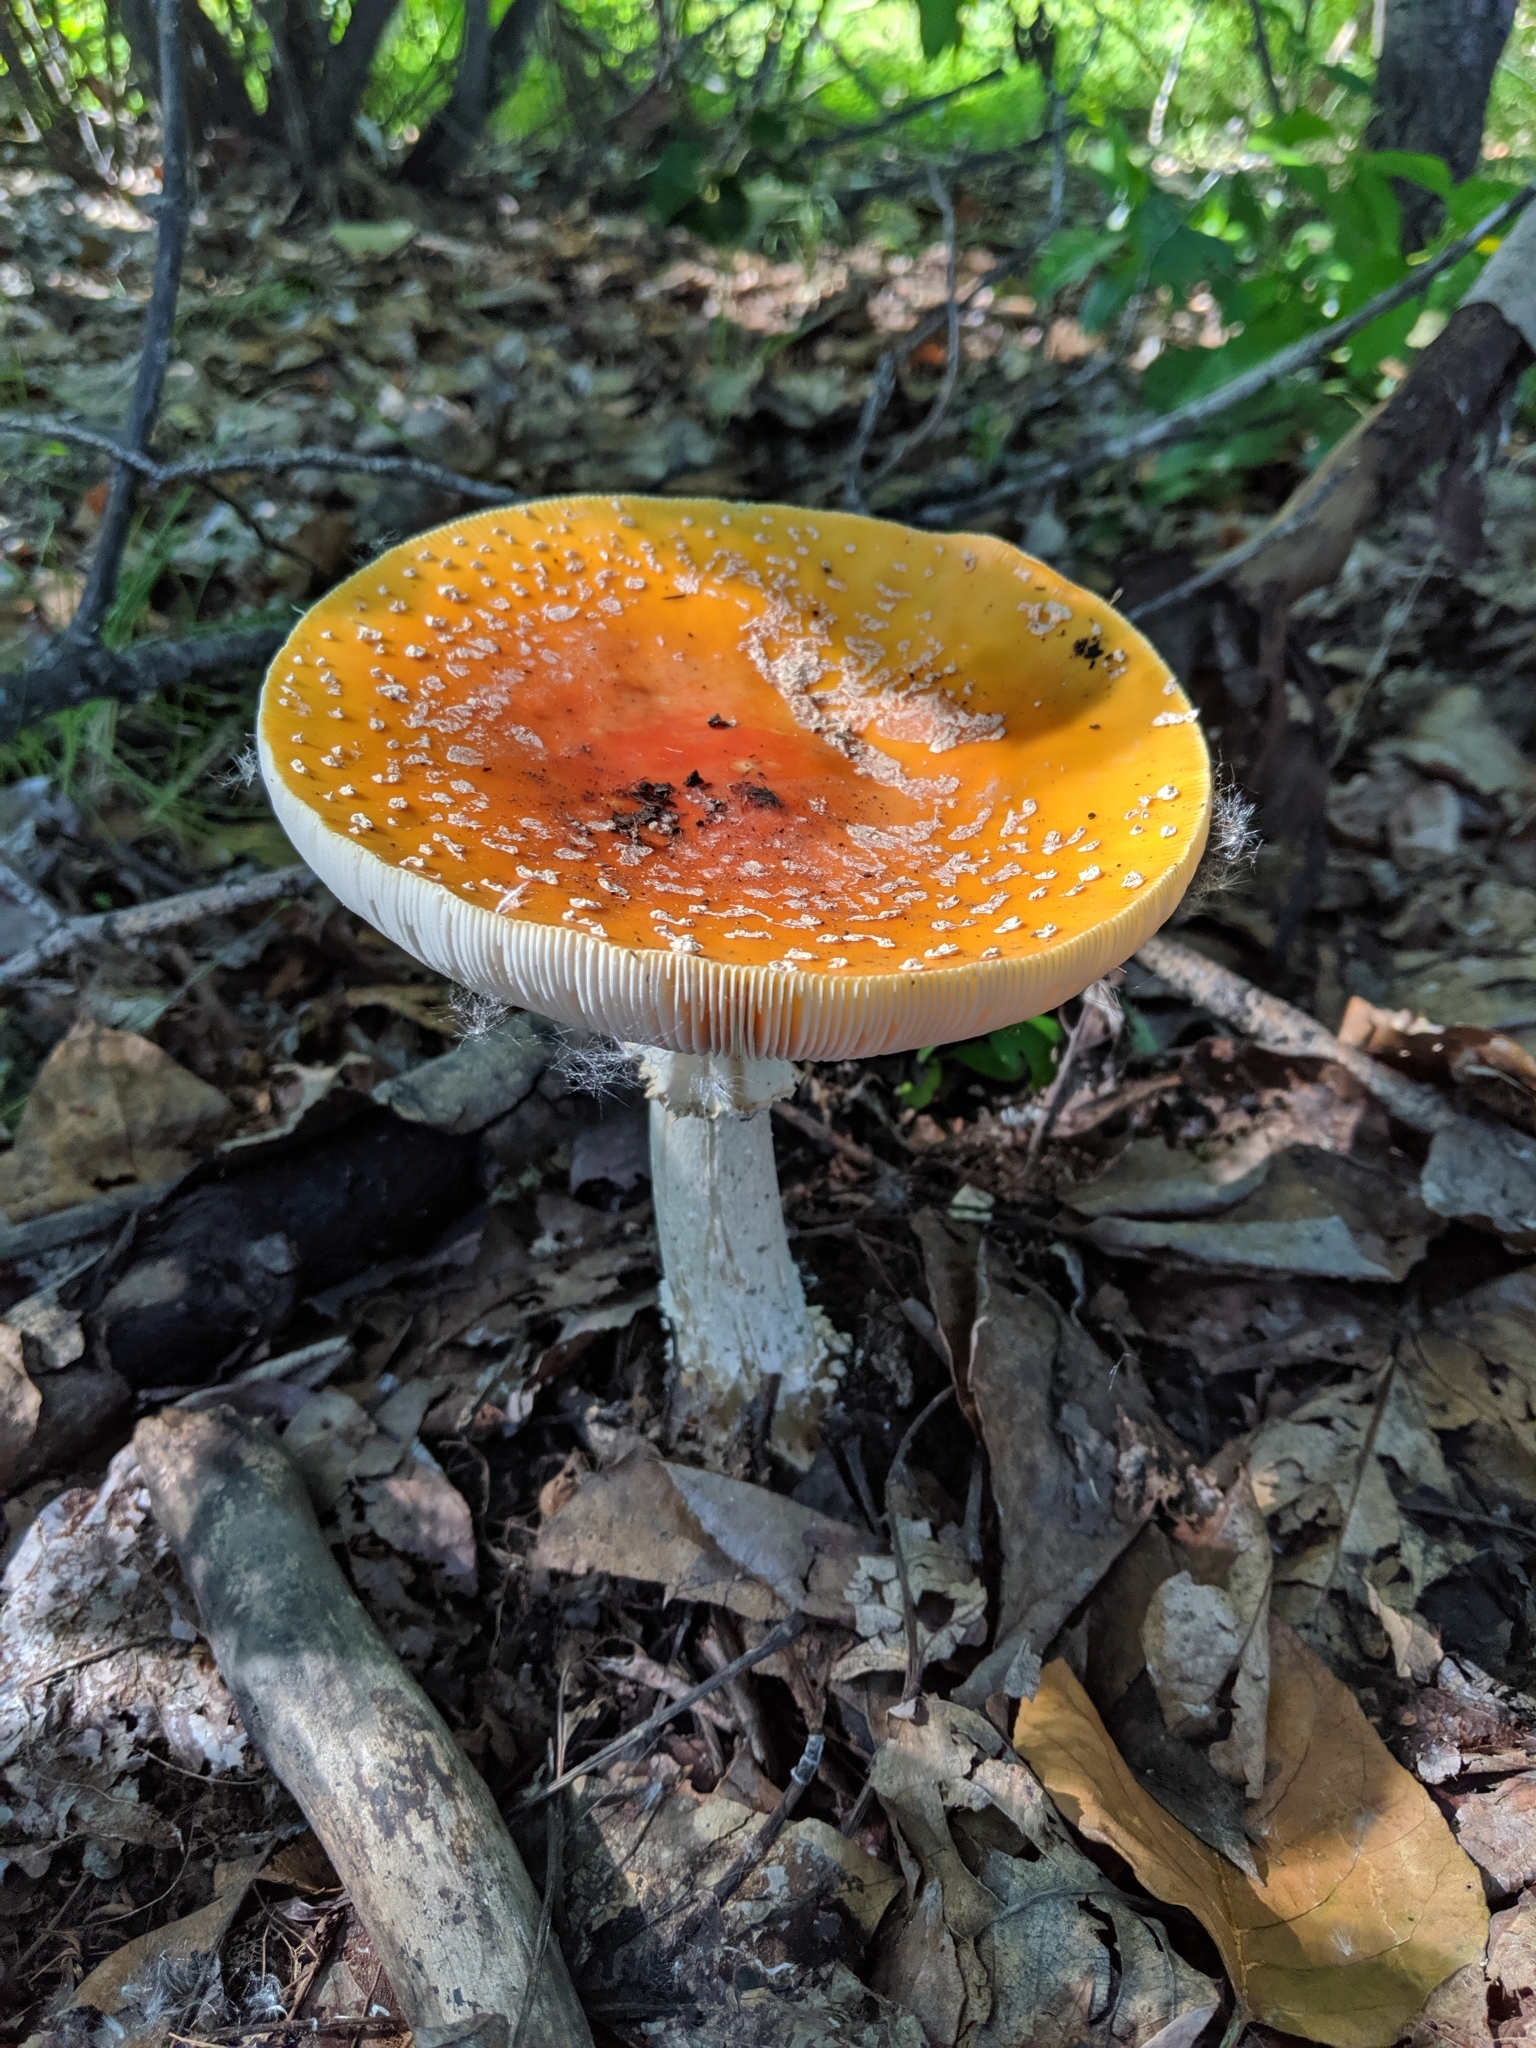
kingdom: Fungi
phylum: Basidiomycota
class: Agaricomycetes
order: Agaricales
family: Amanitaceae
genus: Amanita
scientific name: Amanita muscaria
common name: Fly agaric
